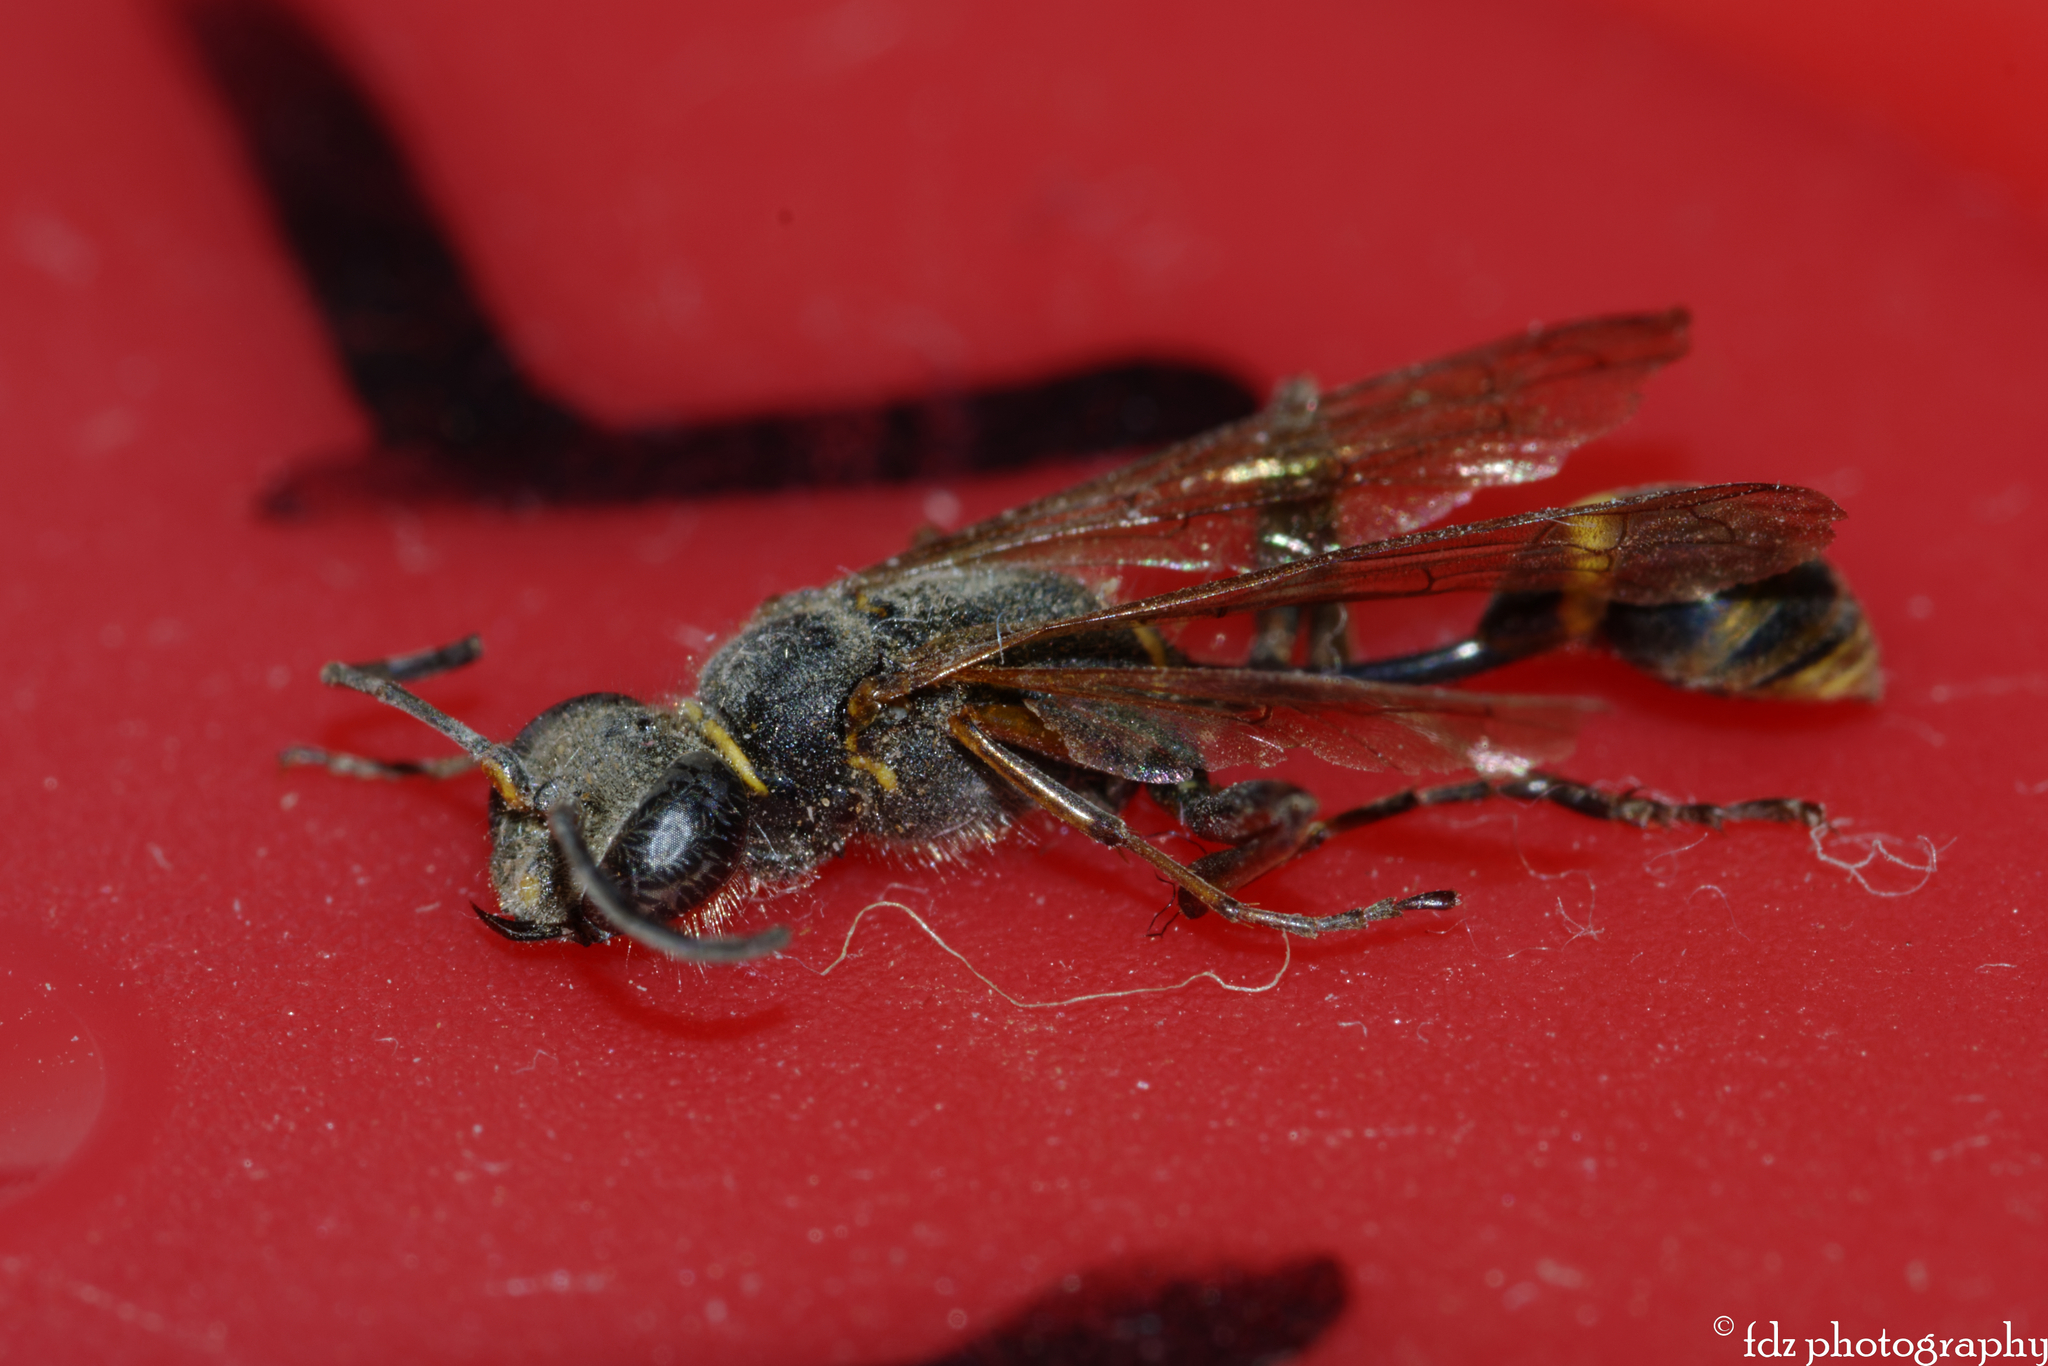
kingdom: Animalia
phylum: Arthropoda
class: Insecta
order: Hymenoptera
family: Sphecidae
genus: Sceliphron
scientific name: Sceliphron curvatum
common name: Pèlopèe
